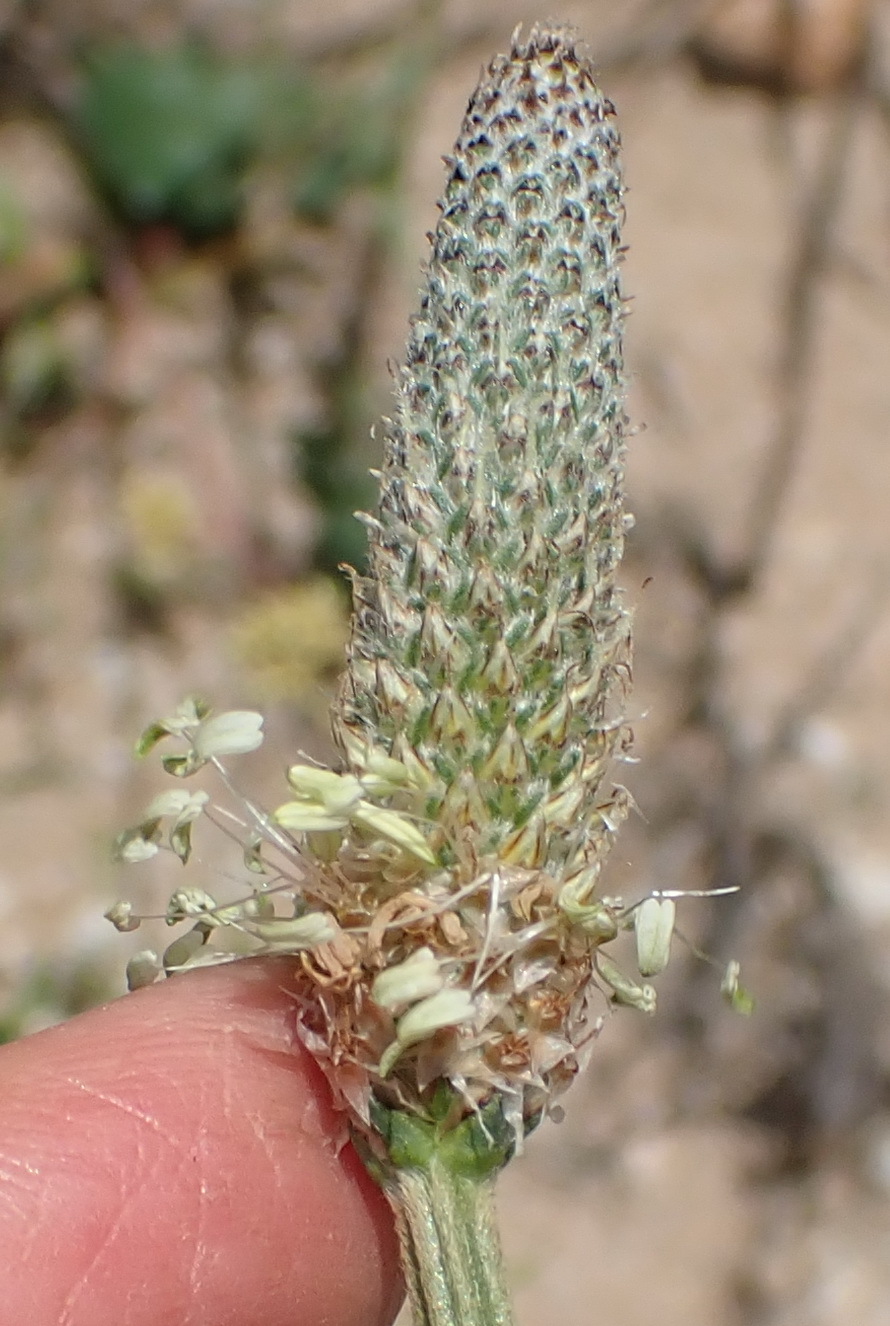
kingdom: Plantae
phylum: Tracheophyta
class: Magnoliopsida
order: Lamiales
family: Plantaginaceae
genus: Plantago
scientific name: Plantago lanceolata
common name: Ribwort plantain
